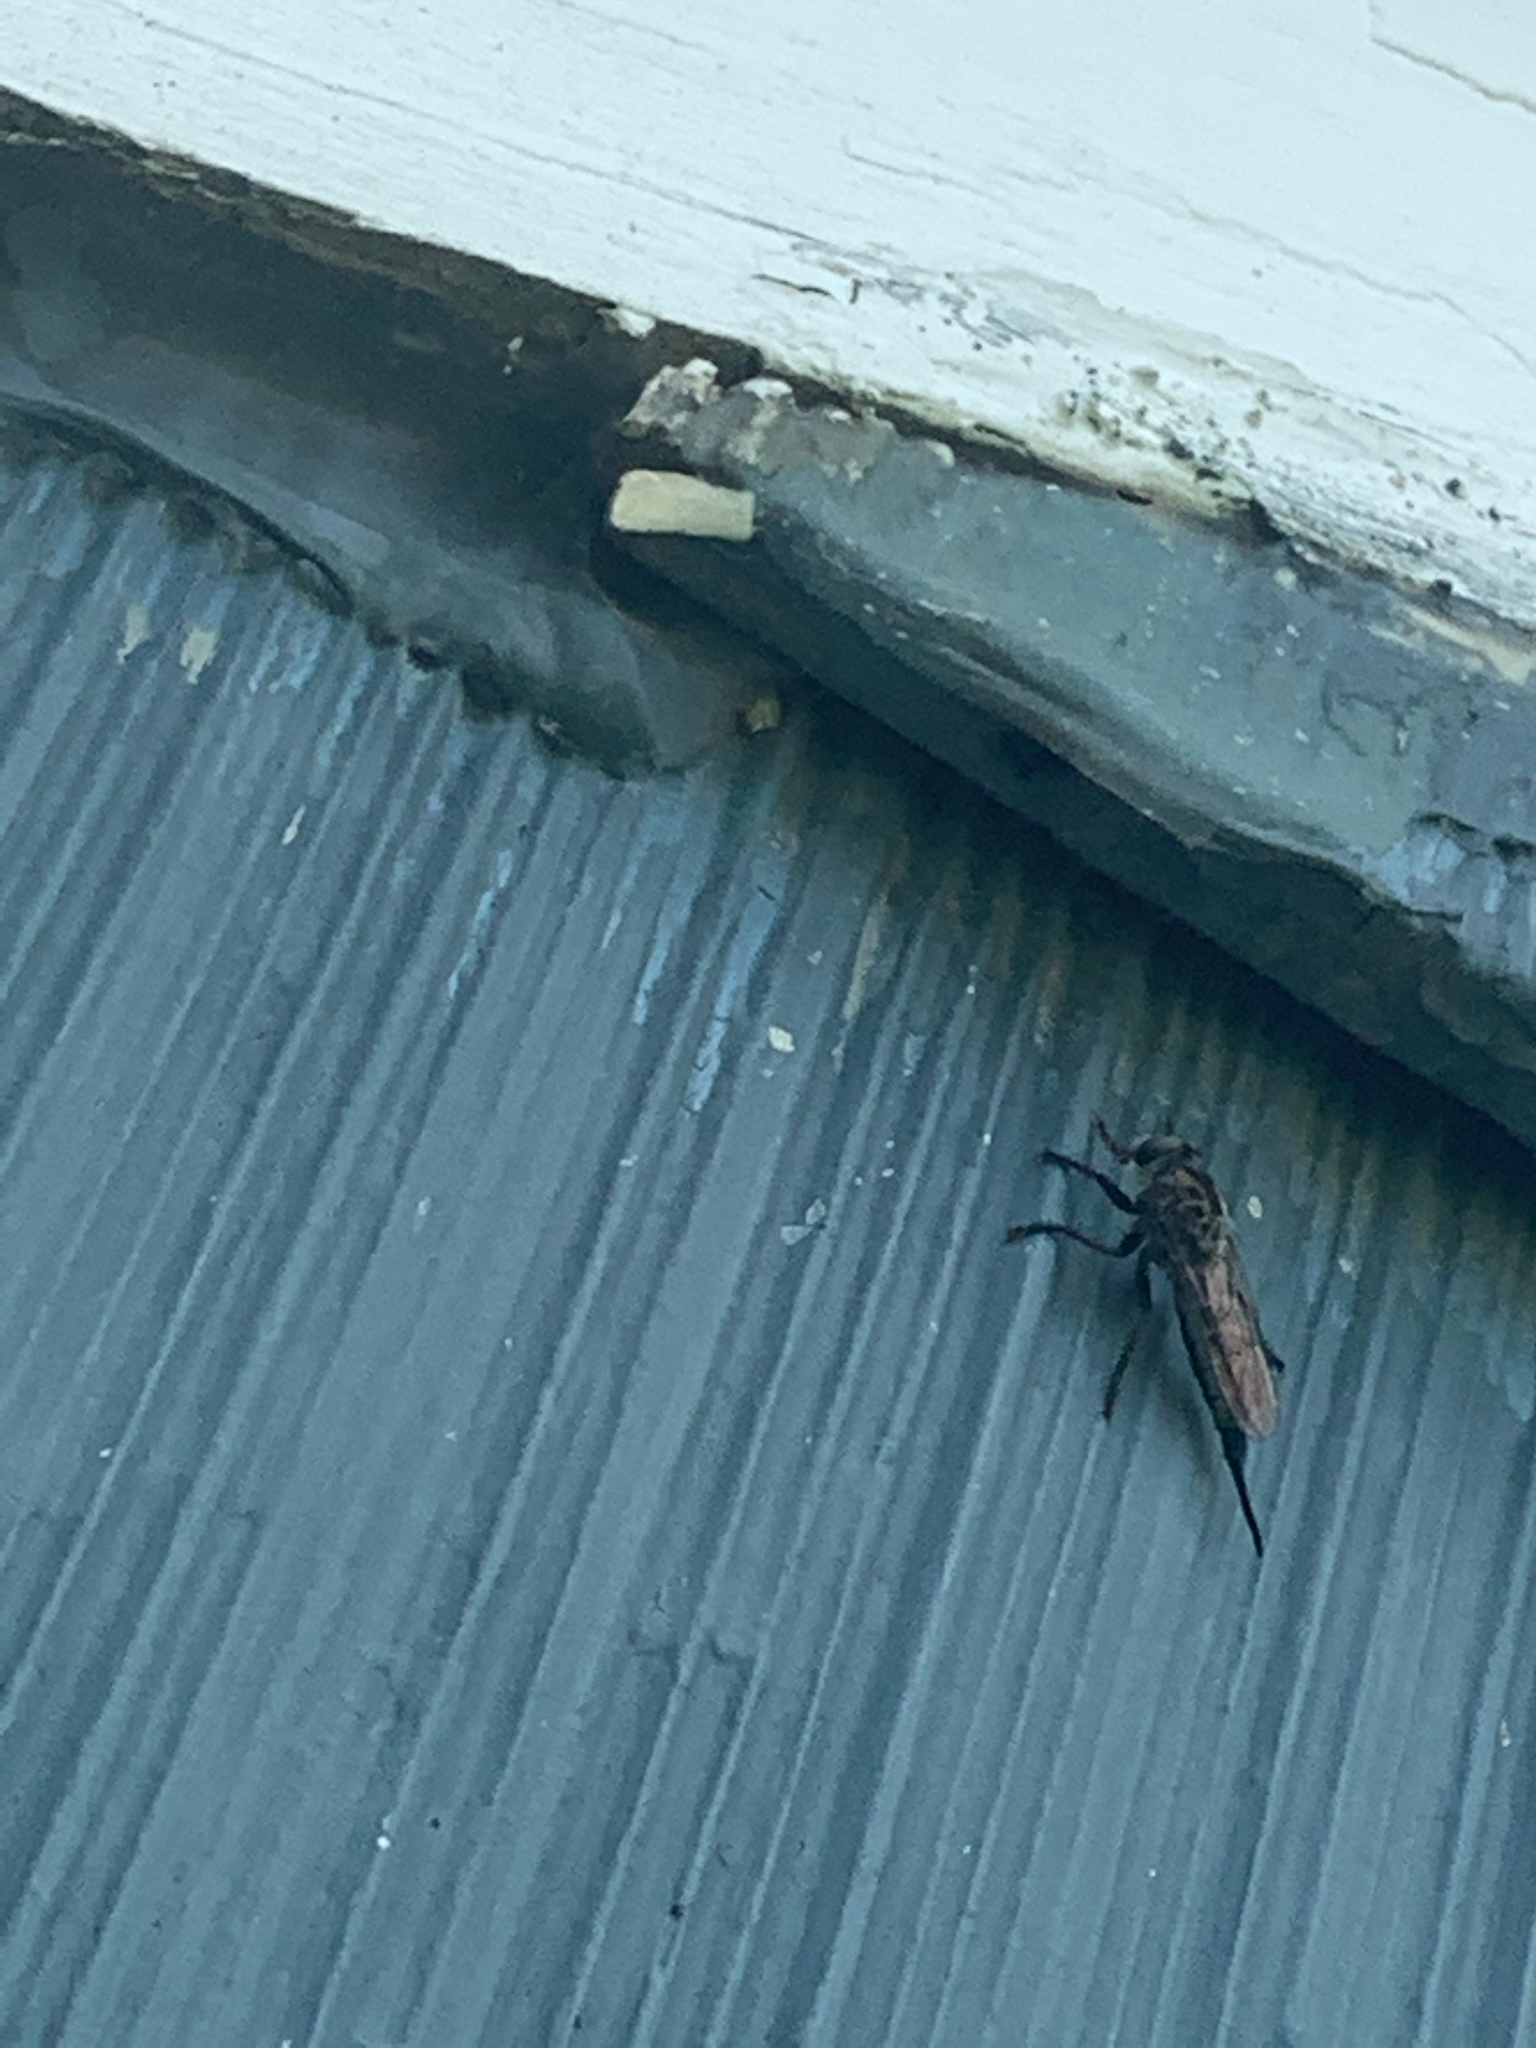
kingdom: Animalia
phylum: Arthropoda
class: Insecta
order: Diptera
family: Asilidae
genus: Efferia
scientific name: Efferia aestuans
